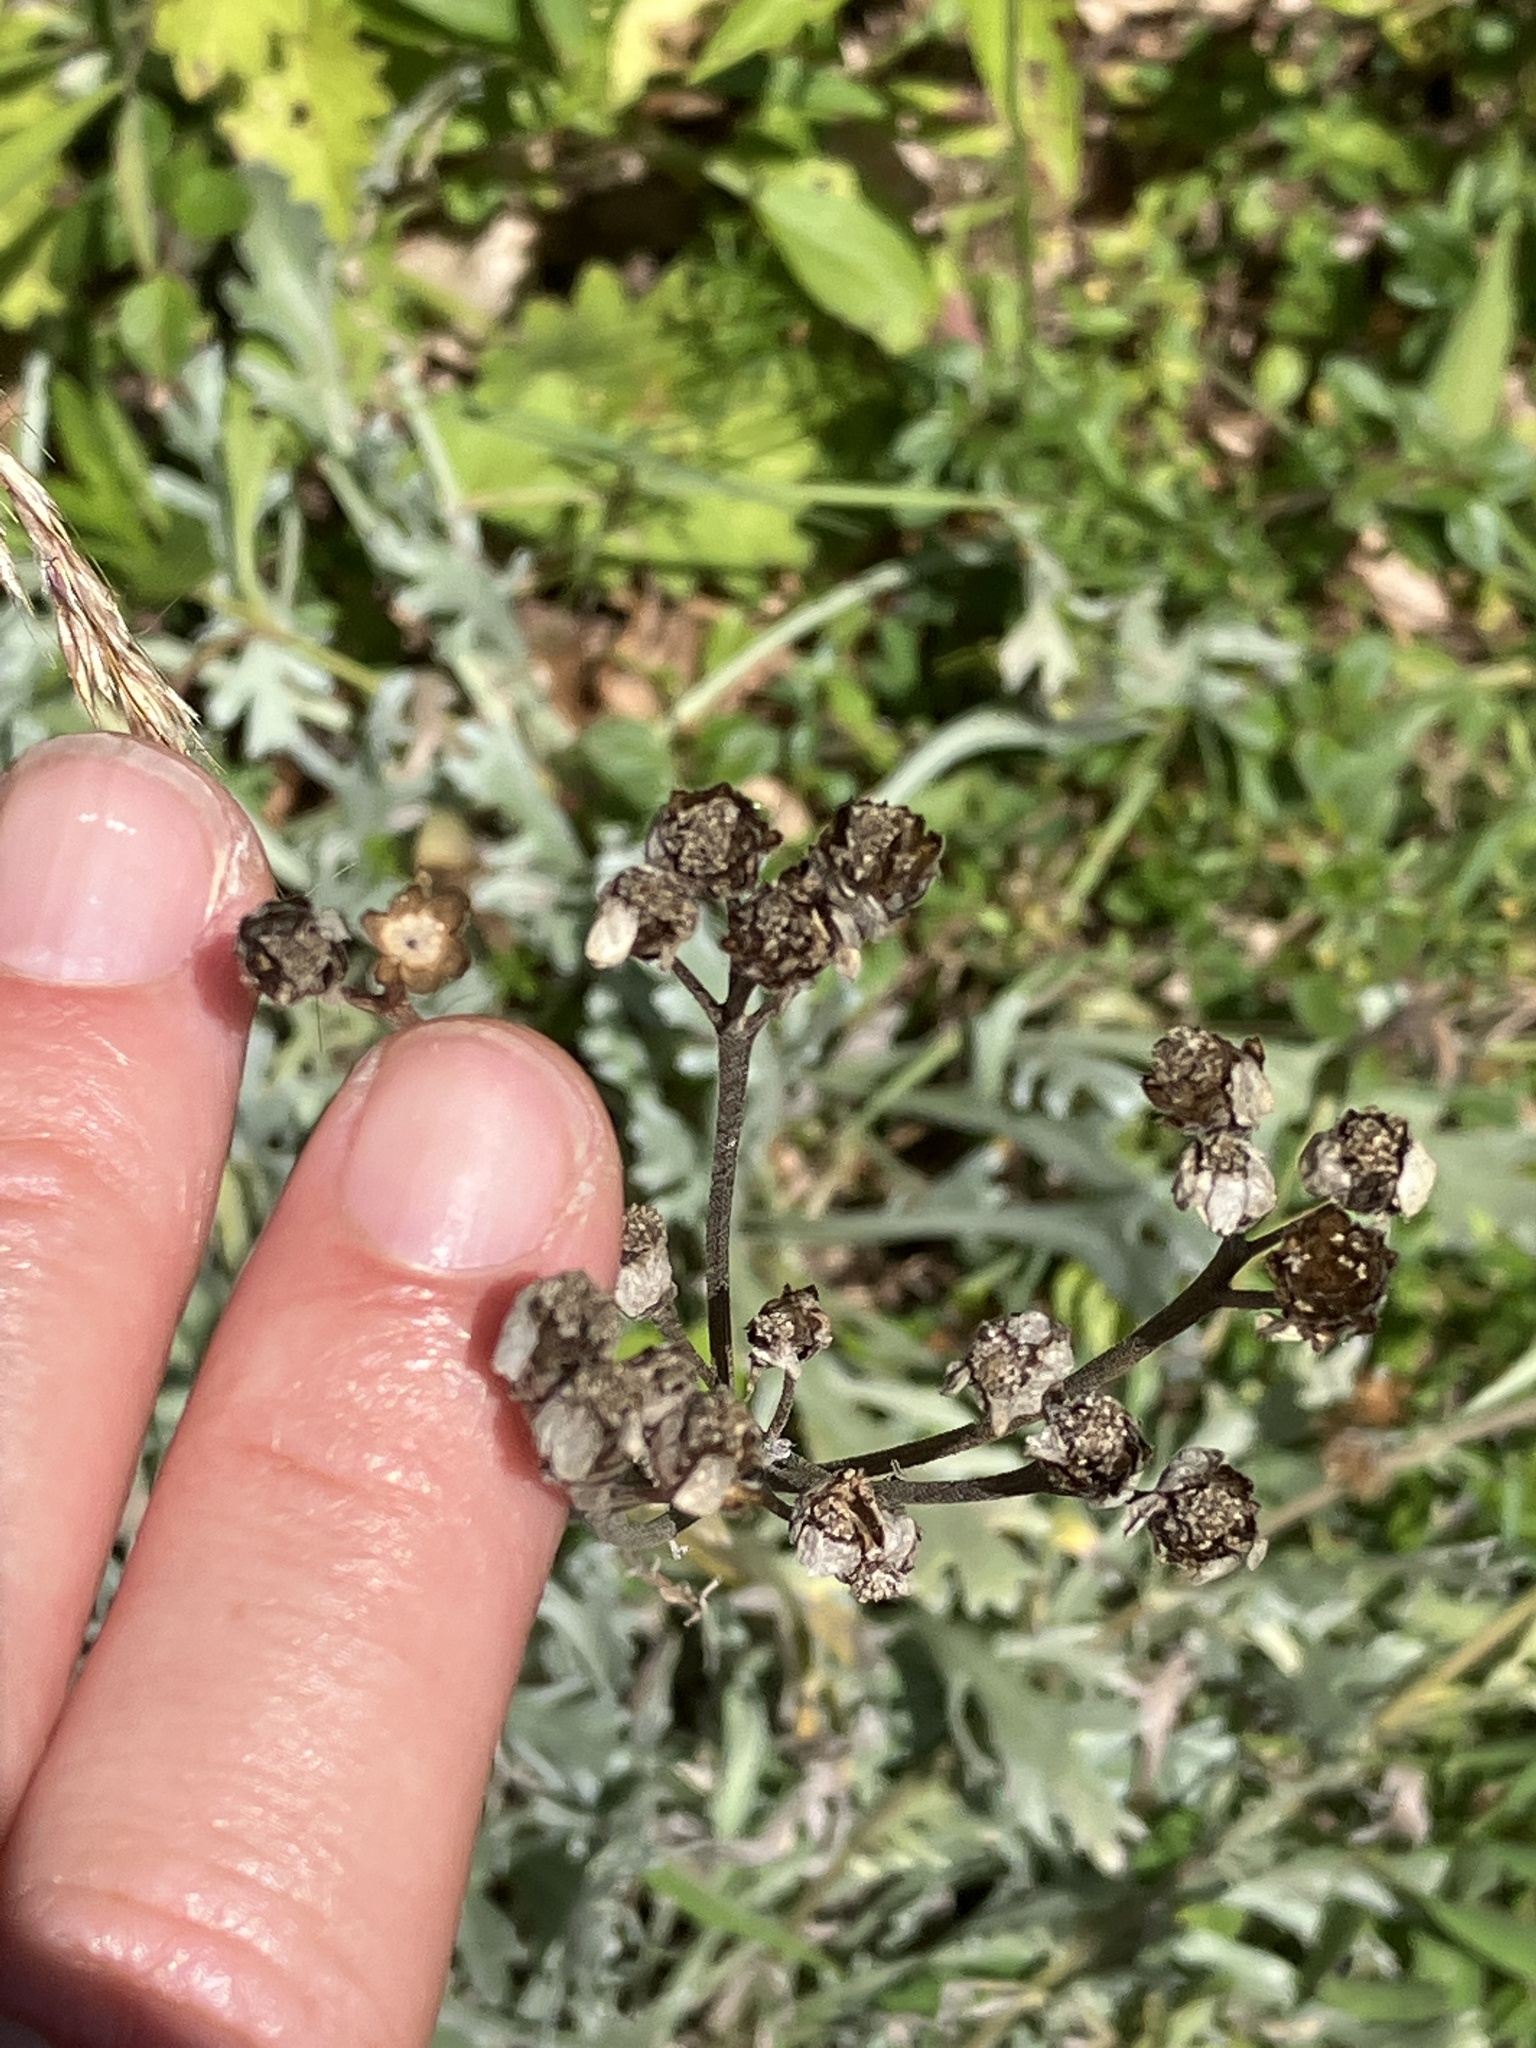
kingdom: Plantae
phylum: Tracheophyta
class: Magnoliopsida
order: Asterales
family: Asteraceae
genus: Achillea
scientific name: Achillea clavennae
